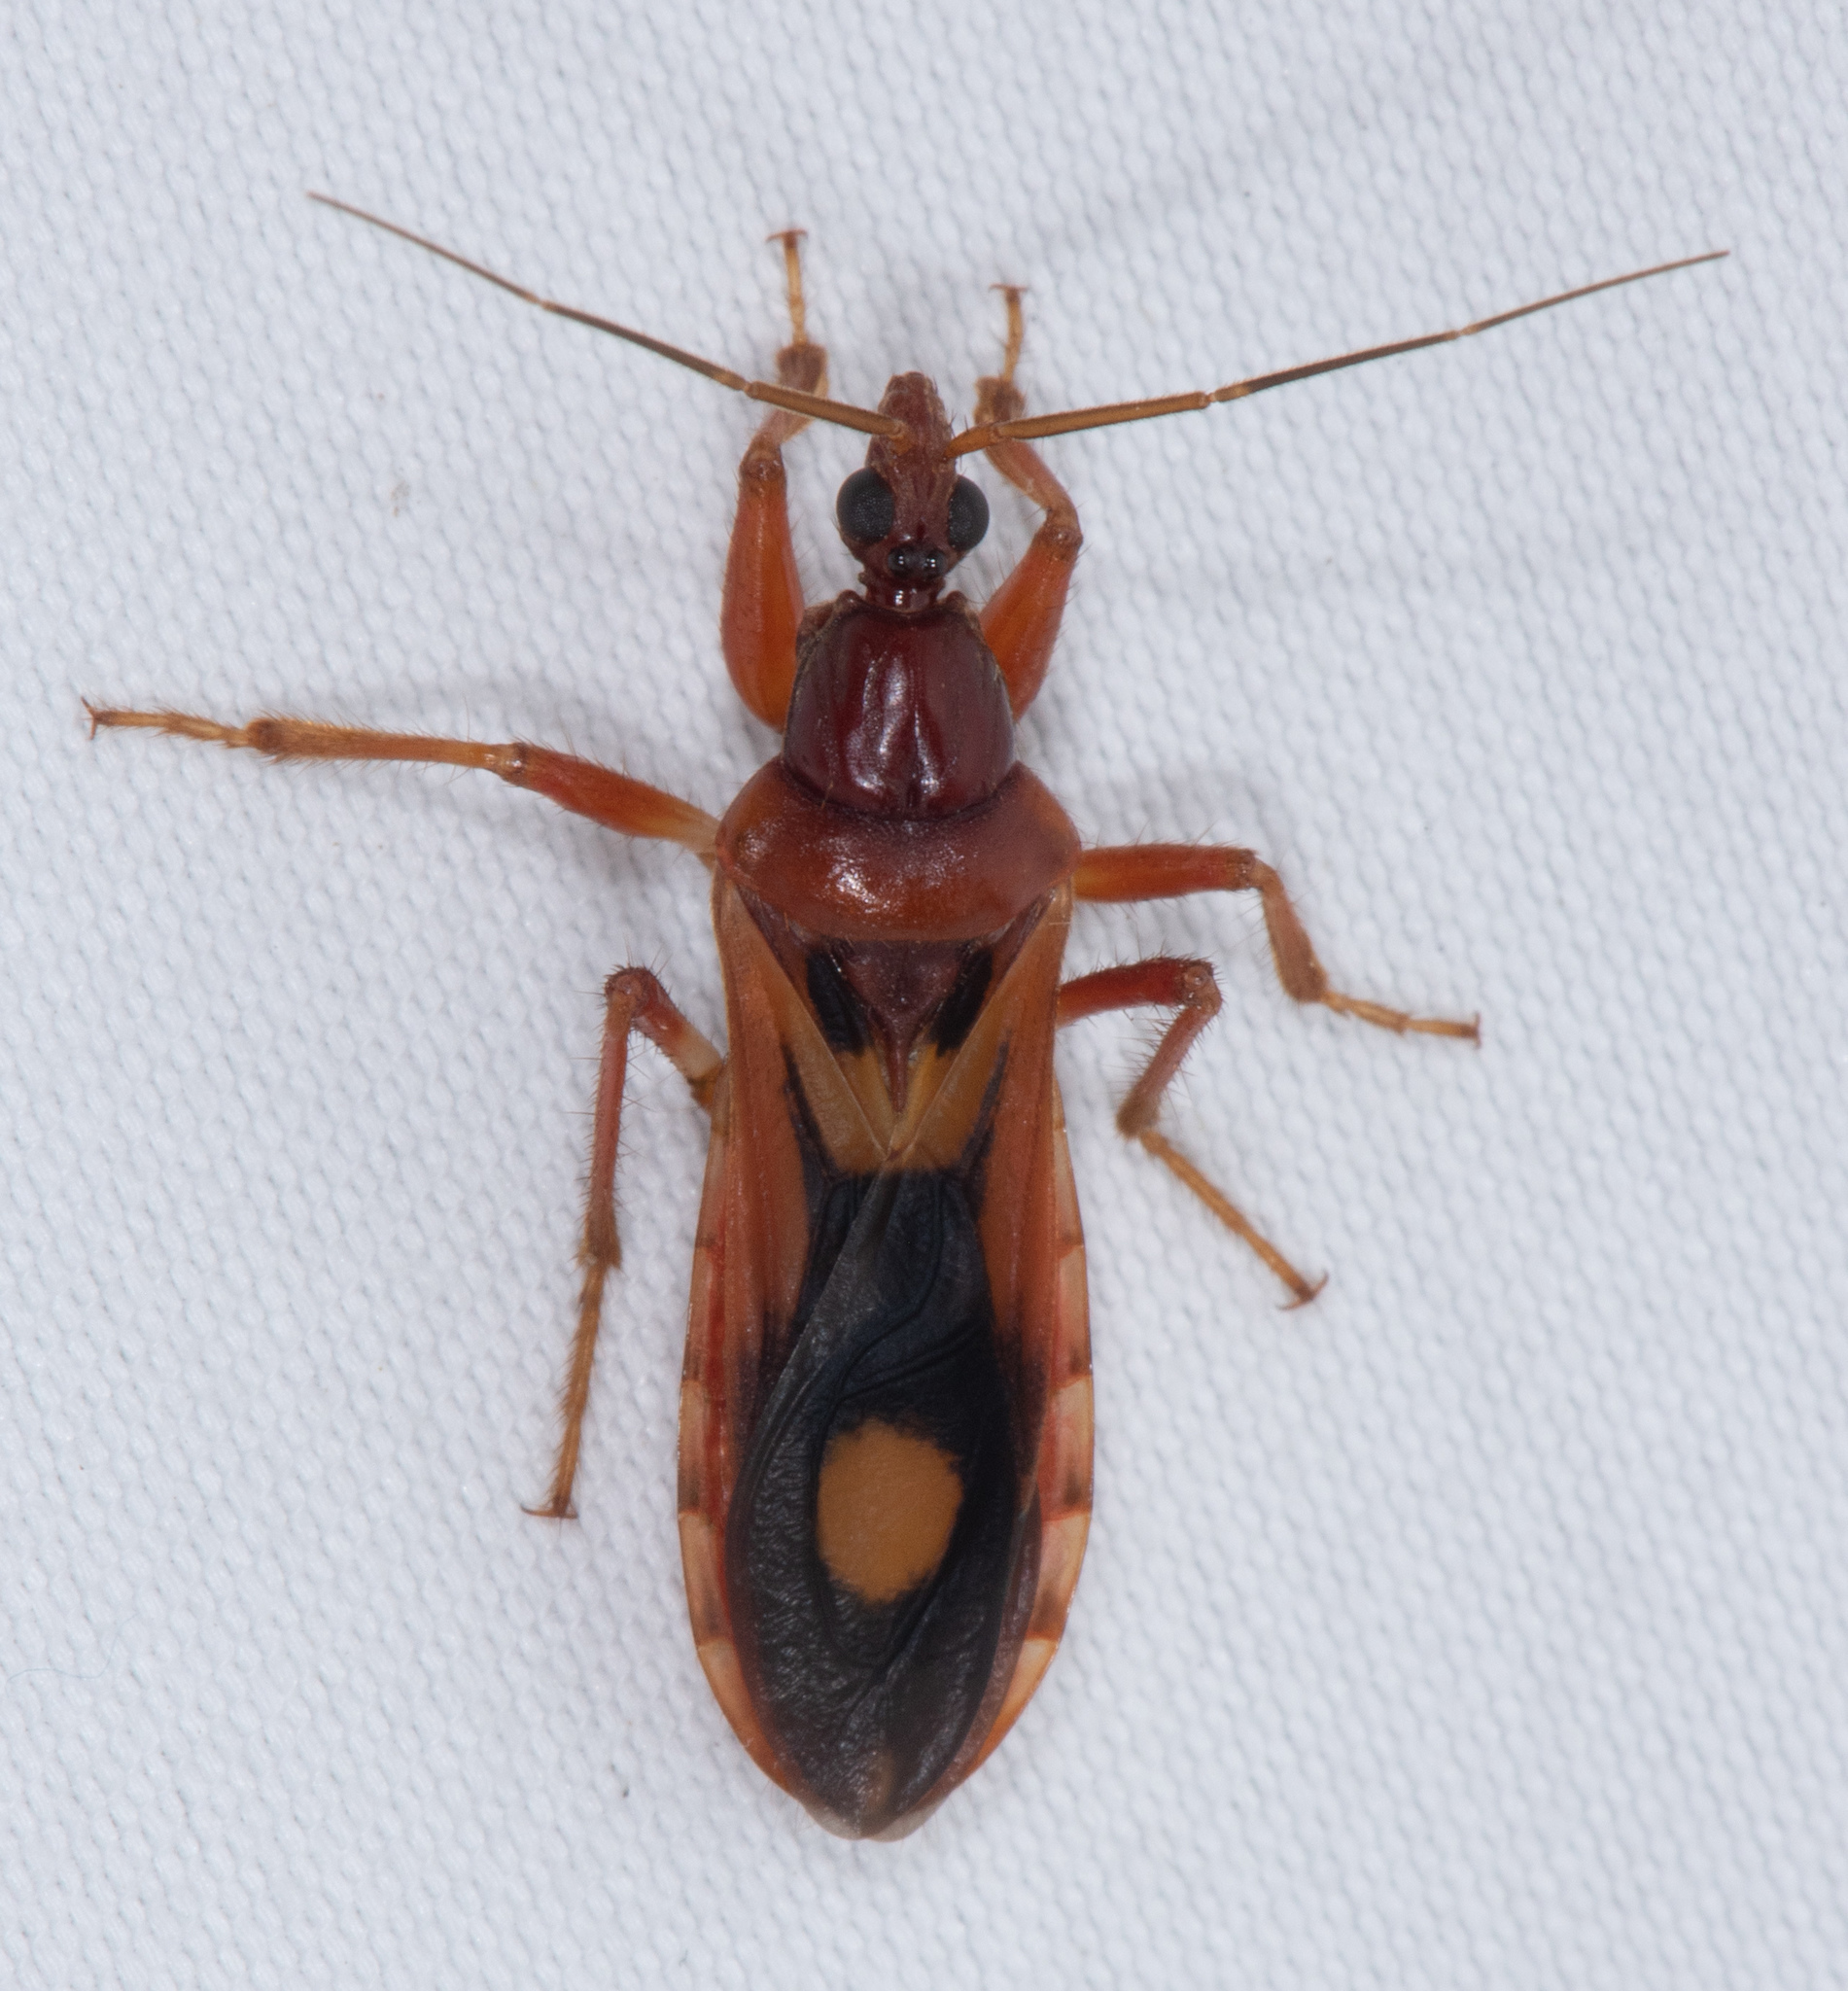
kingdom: Animalia
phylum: Arthropoda
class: Insecta
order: Hemiptera
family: Reduviidae
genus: Rasahus
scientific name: Rasahus thoracicus
